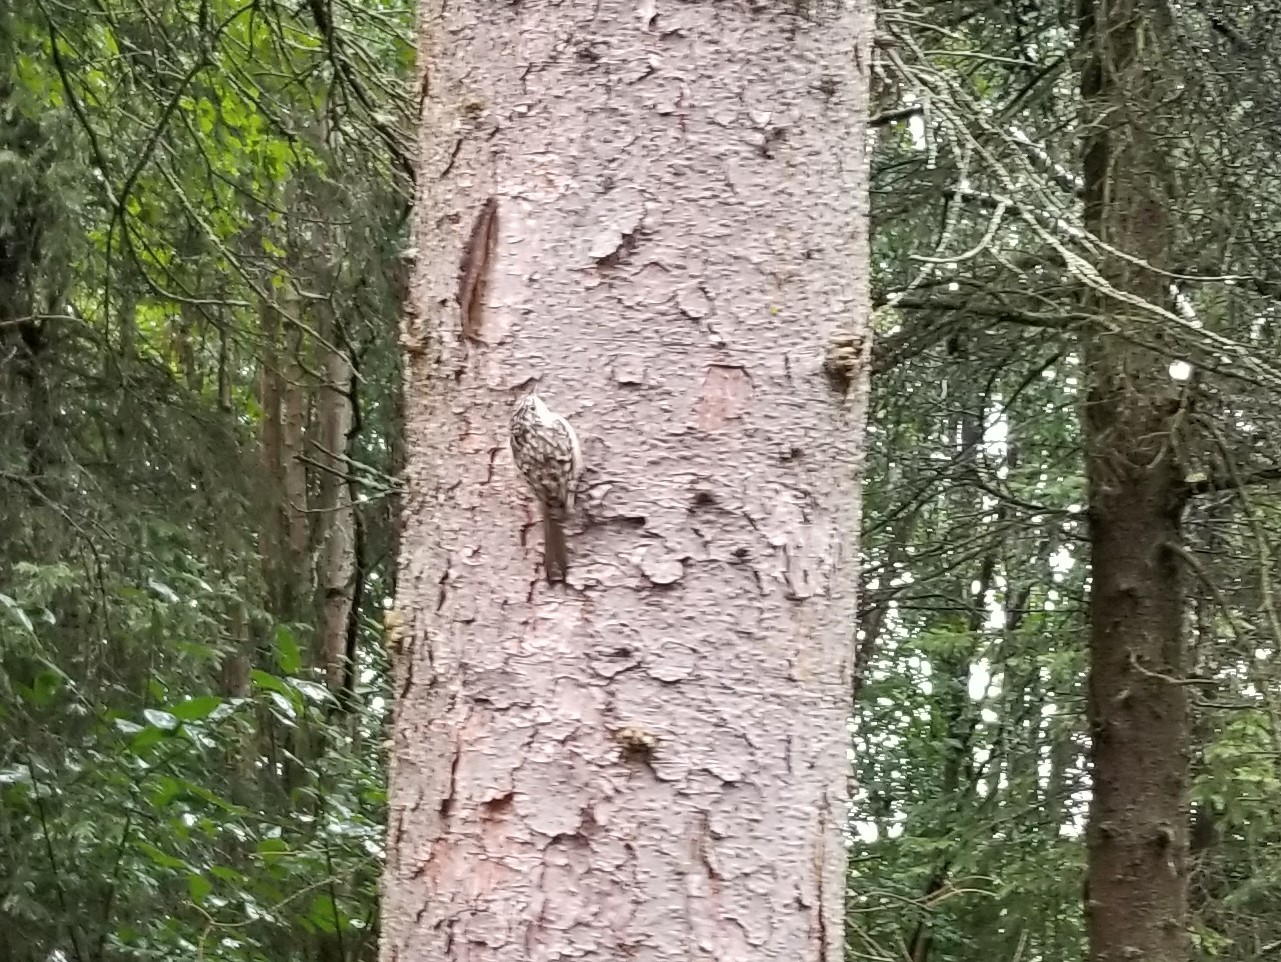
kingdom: Animalia
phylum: Chordata
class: Aves
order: Passeriformes
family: Certhiidae
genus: Certhia
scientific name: Certhia americana
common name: Brown creeper
